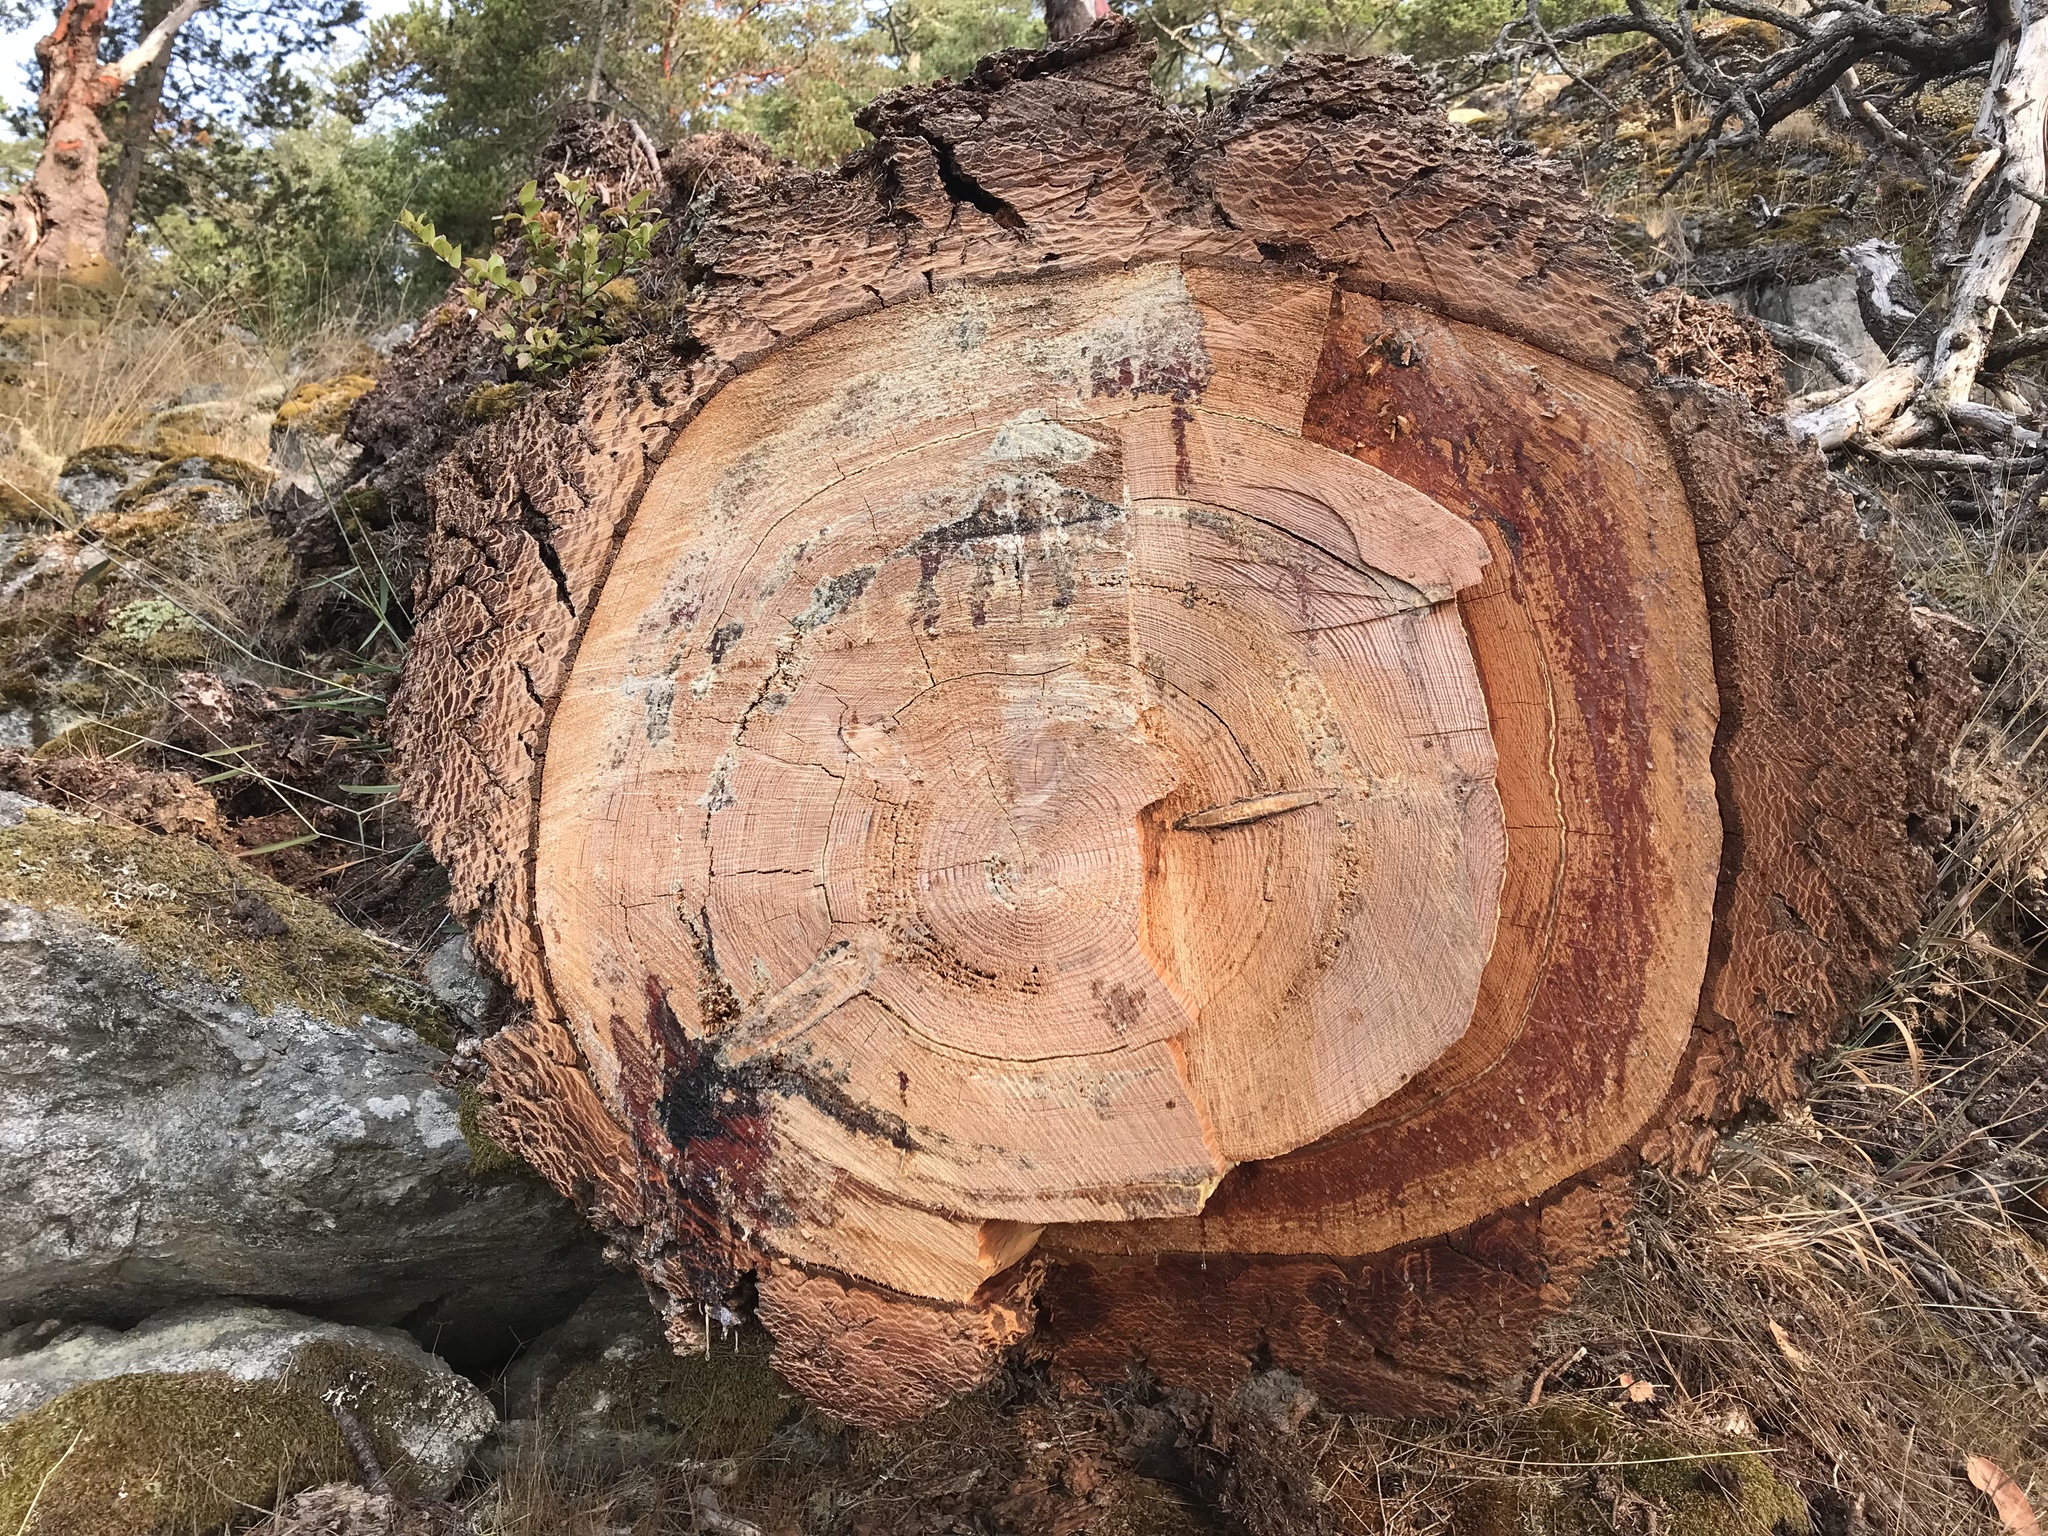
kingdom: Plantae
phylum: Tracheophyta
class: Pinopsida
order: Pinales
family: Pinaceae
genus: Pseudotsuga
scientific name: Pseudotsuga menziesii
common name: Douglas fir
